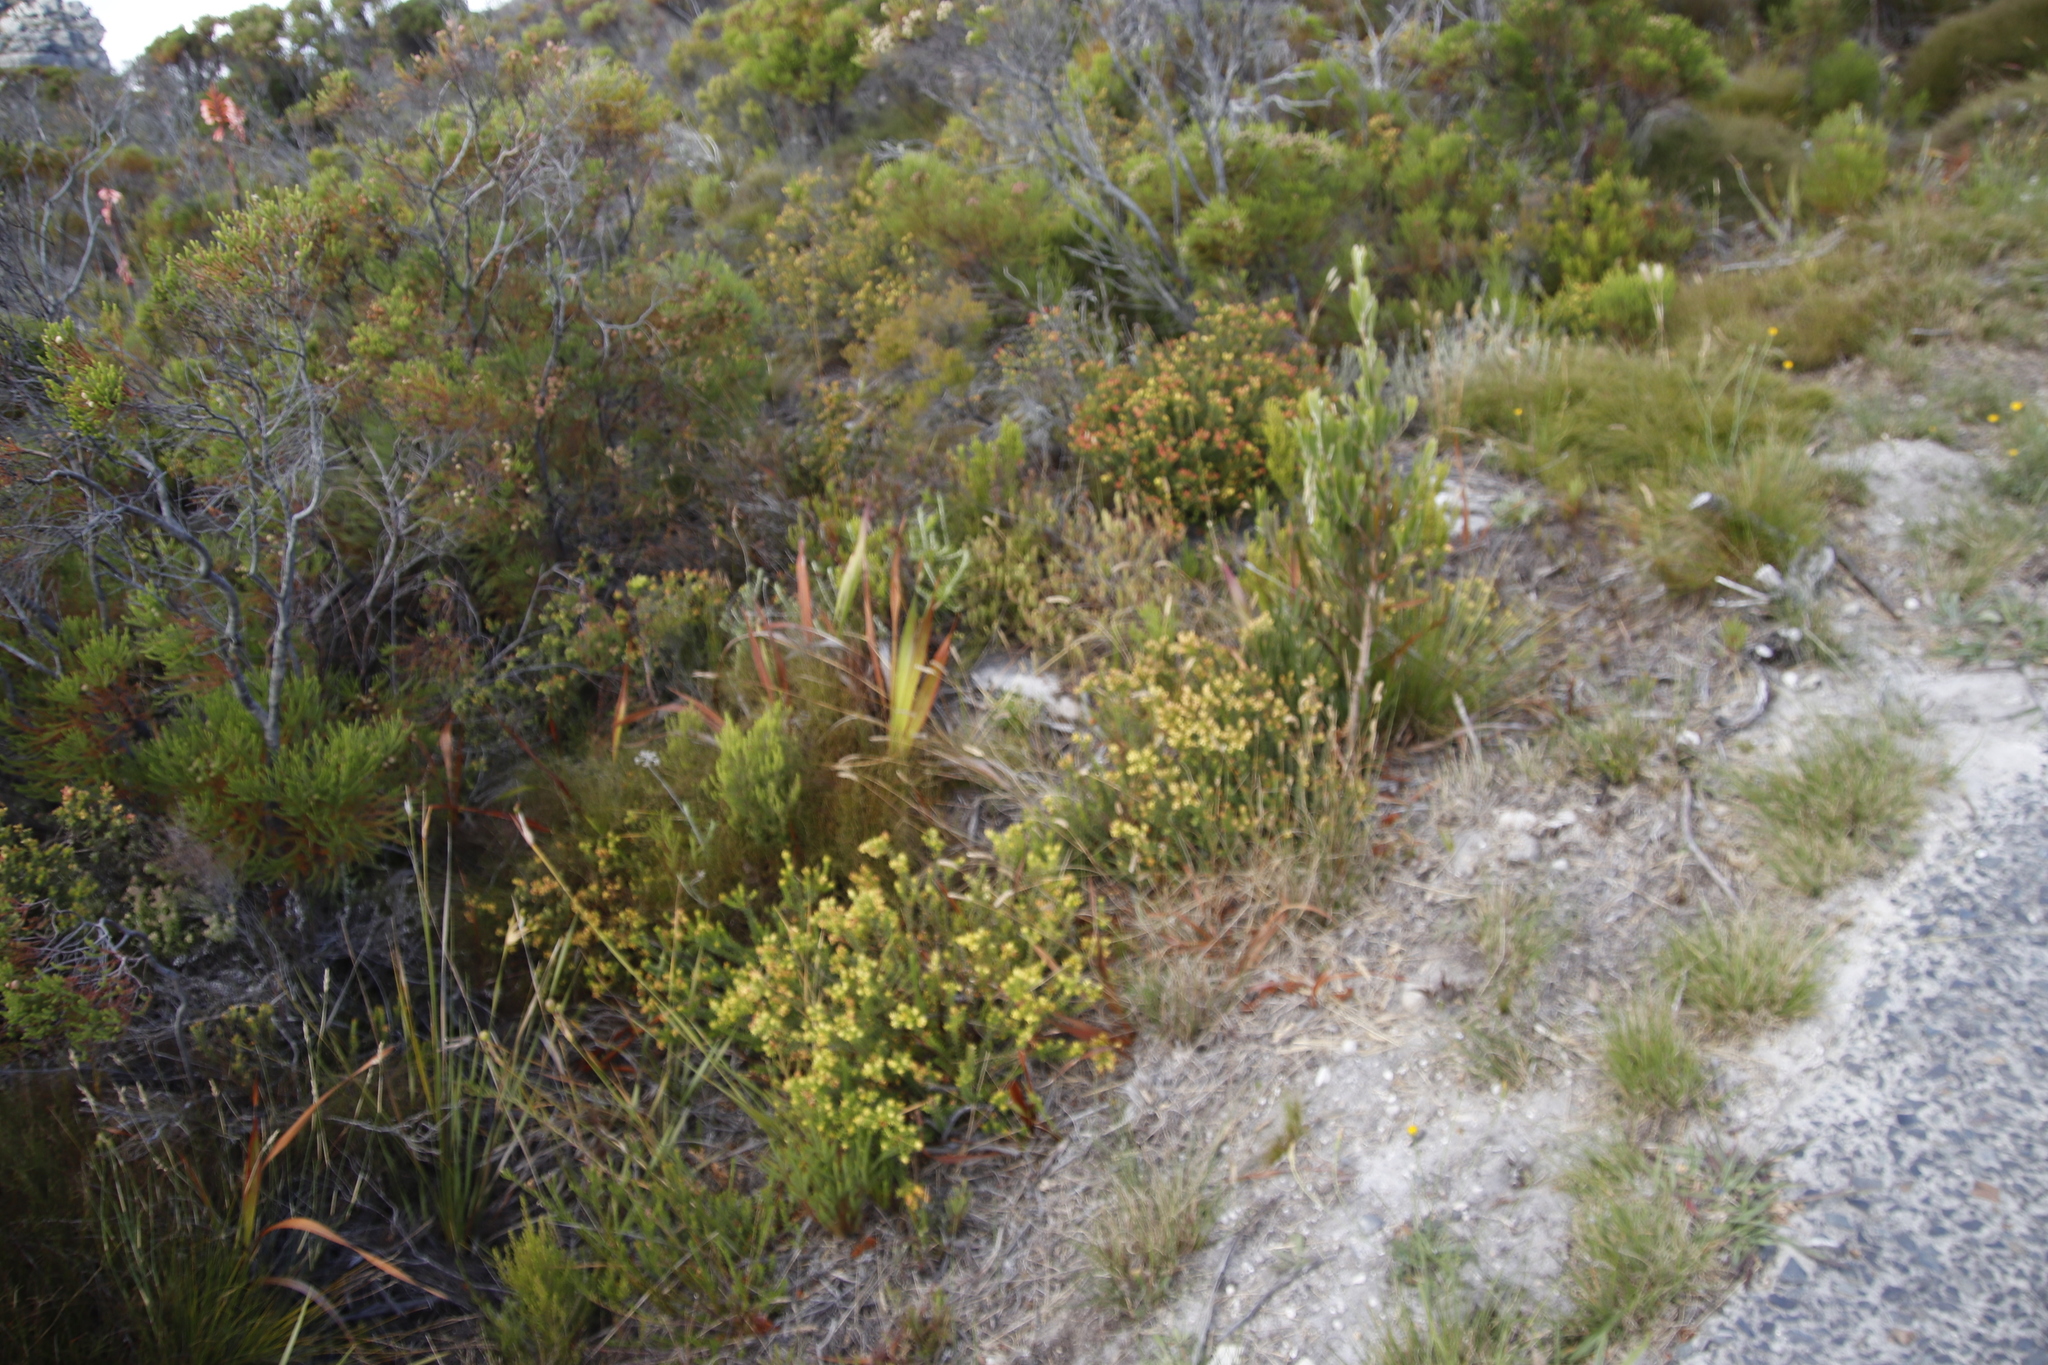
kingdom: Plantae
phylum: Tracheophyta
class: Magnoliopsida
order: Myrtales
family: Penaeaceae
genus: Penaea
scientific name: Penaea mucronata
